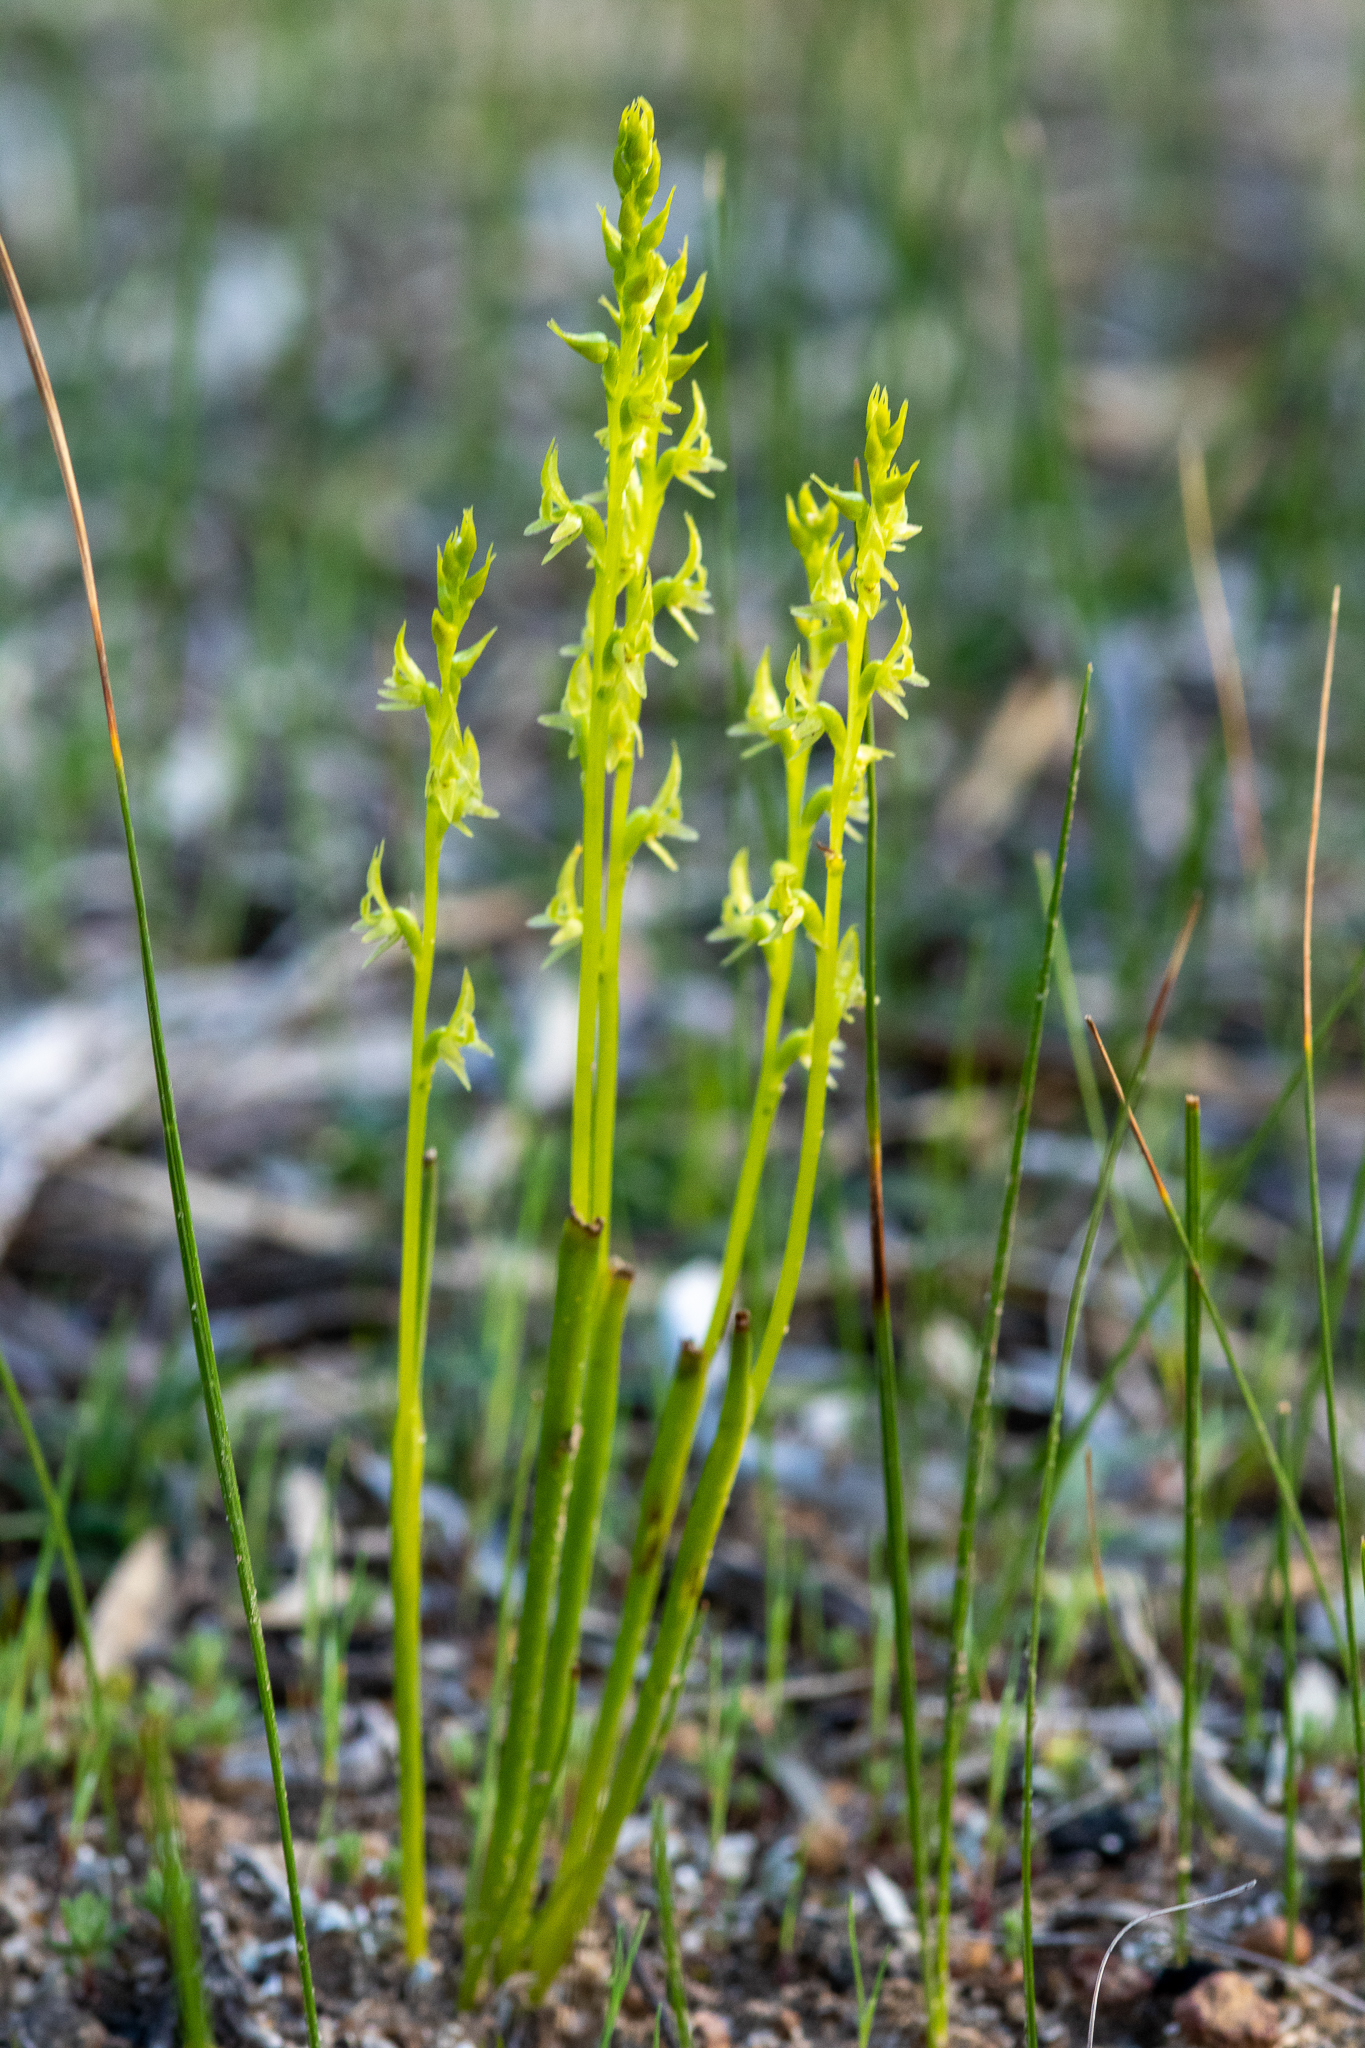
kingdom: Plantae
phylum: Tracheophyta
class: Liliopsida
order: Asparagales
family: Orchidaceae
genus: Prasophyllum
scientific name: Prasophyllum gracile
